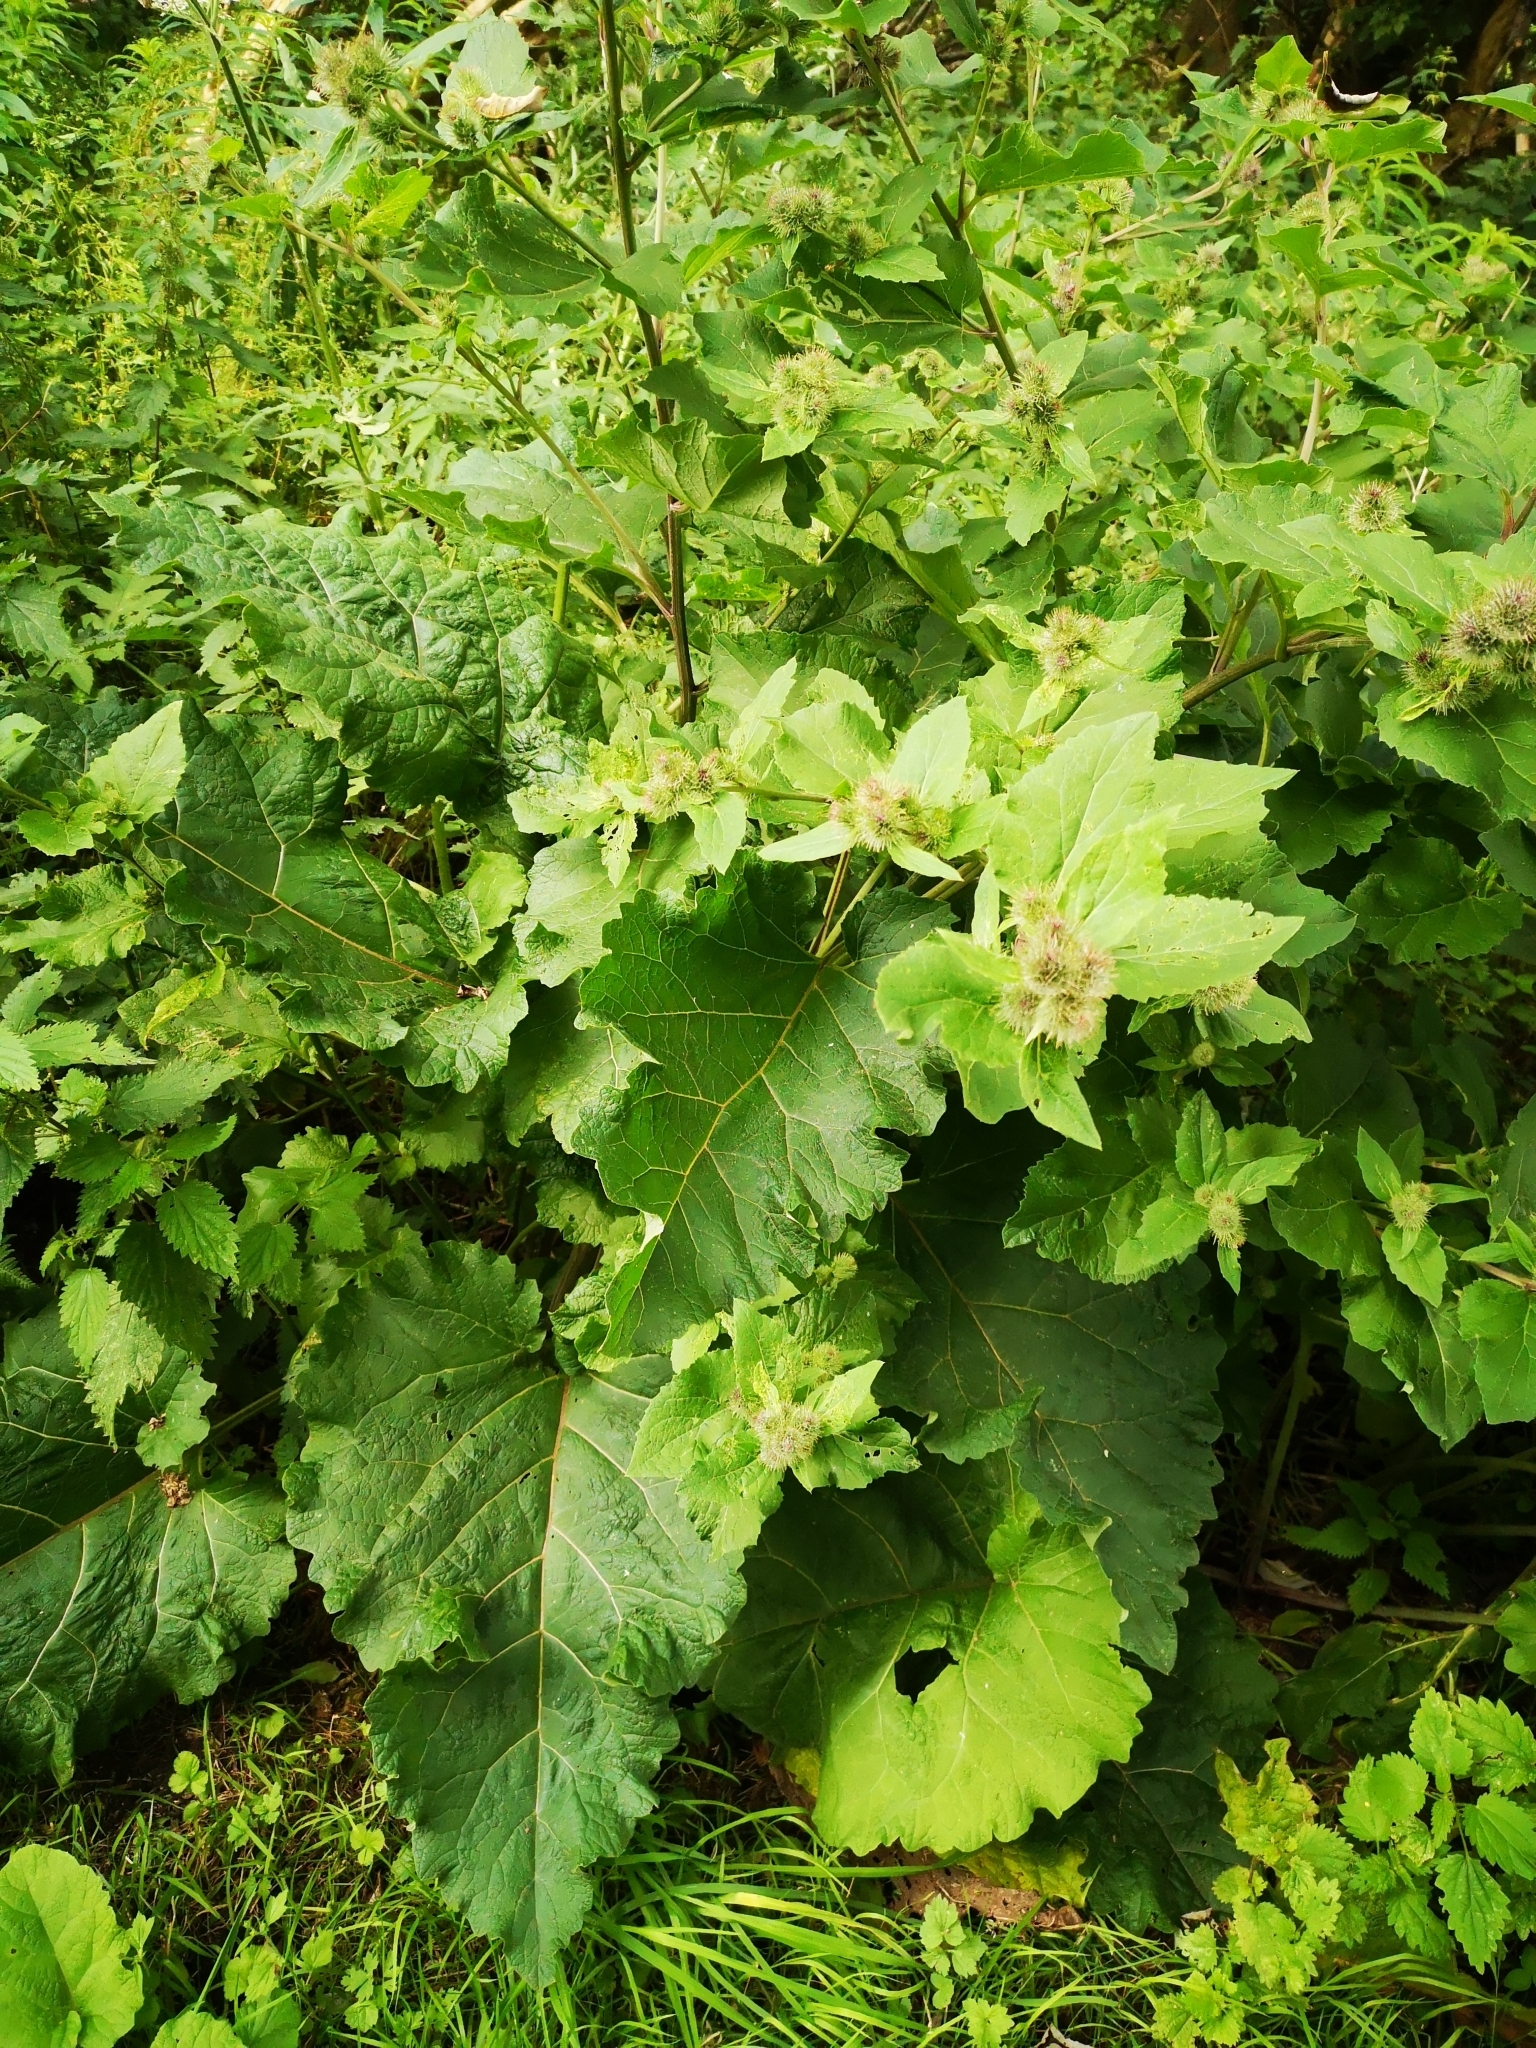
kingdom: Plantae
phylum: Tracheophyta
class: Magnoliopsida
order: Asterales
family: Asteraceae
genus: Arctium
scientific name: Arctium lappa
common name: Greater burdock
